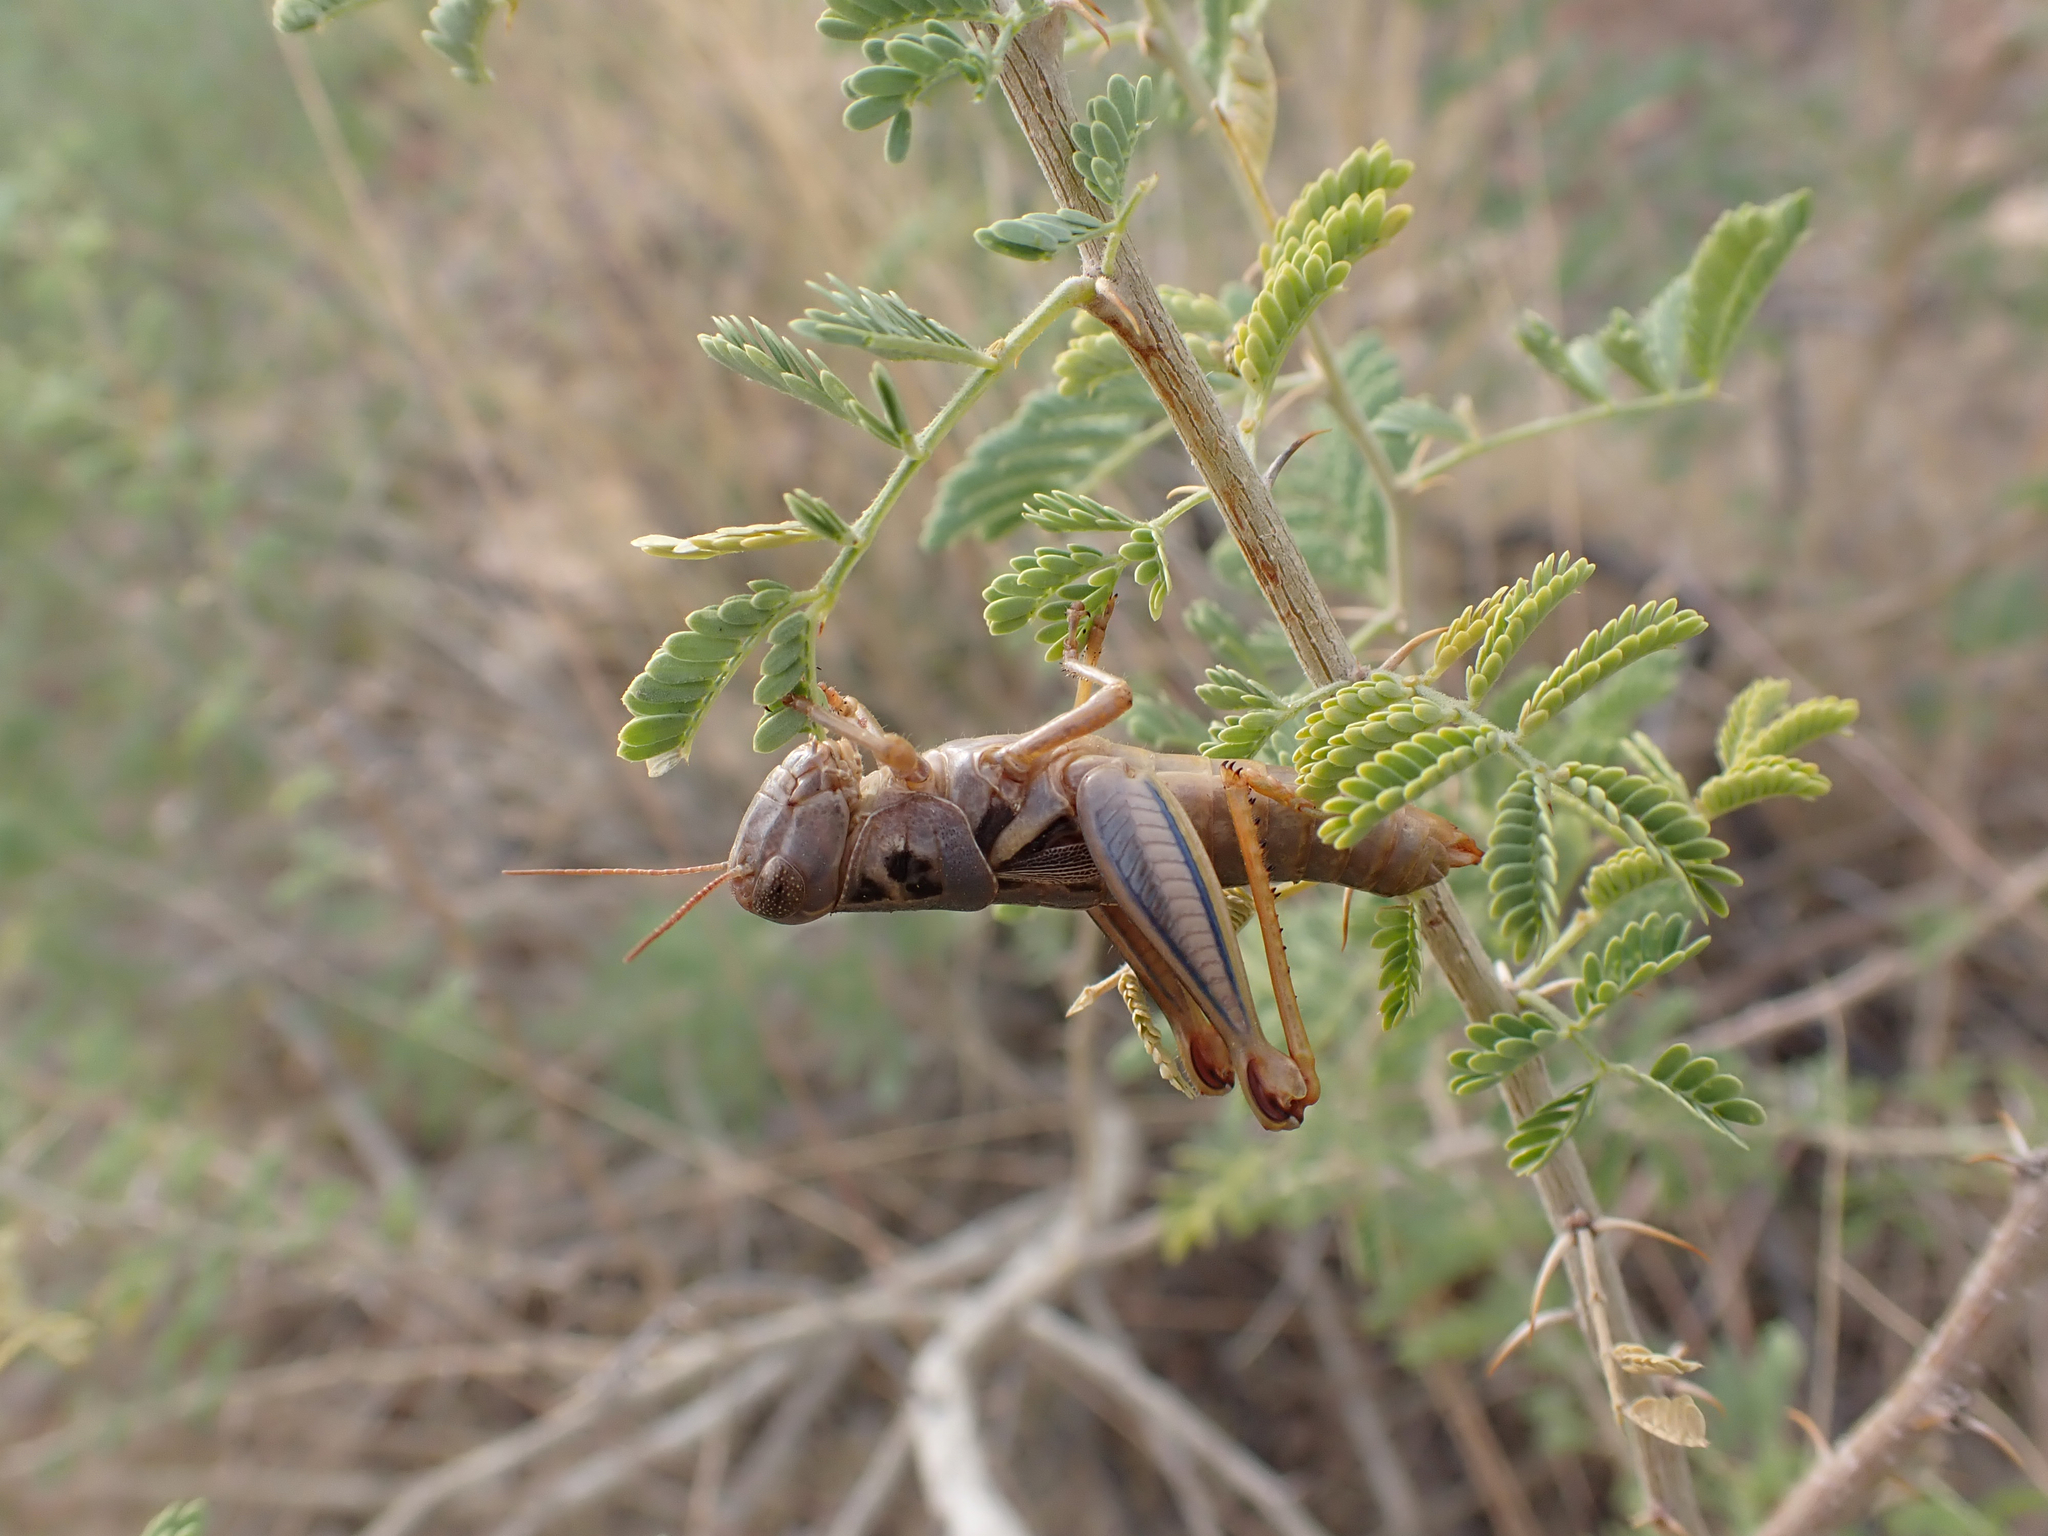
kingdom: Animalia
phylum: Arthropoda
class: Insecta
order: Orthoptera
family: Acrididae
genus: Barytettix
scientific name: Barytettix humphreysii
